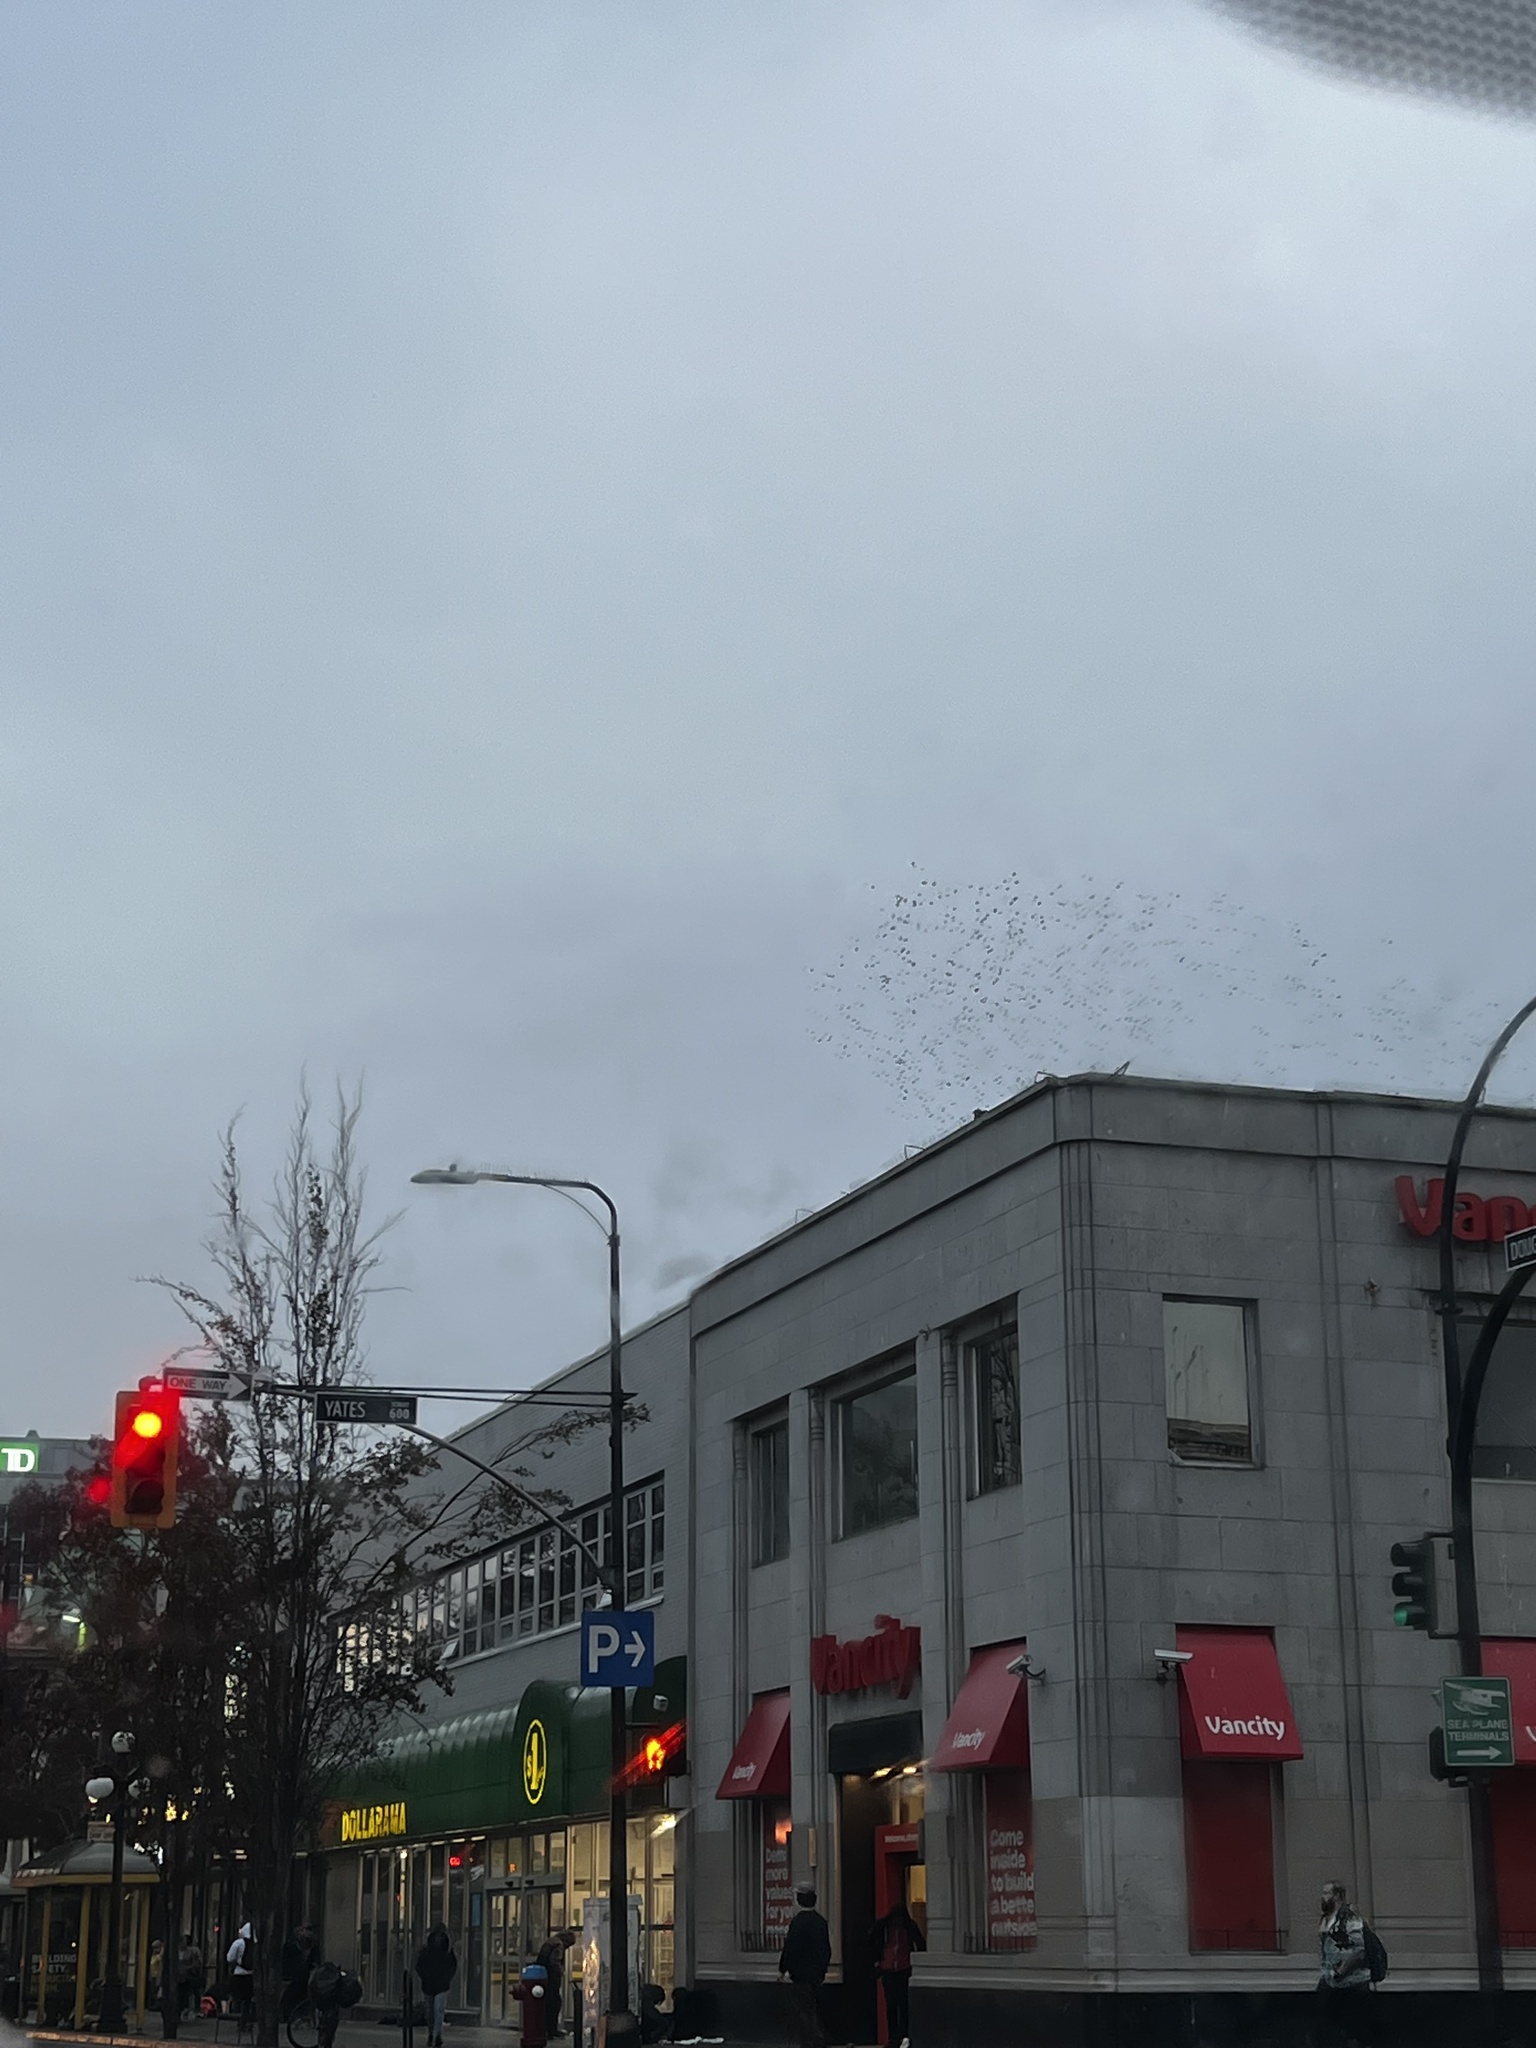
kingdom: Animalia
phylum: Chordata
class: Aves
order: Passeriformes
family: Sturnidae
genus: Sturnus
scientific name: Sturnus vulgaris
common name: Common starling
